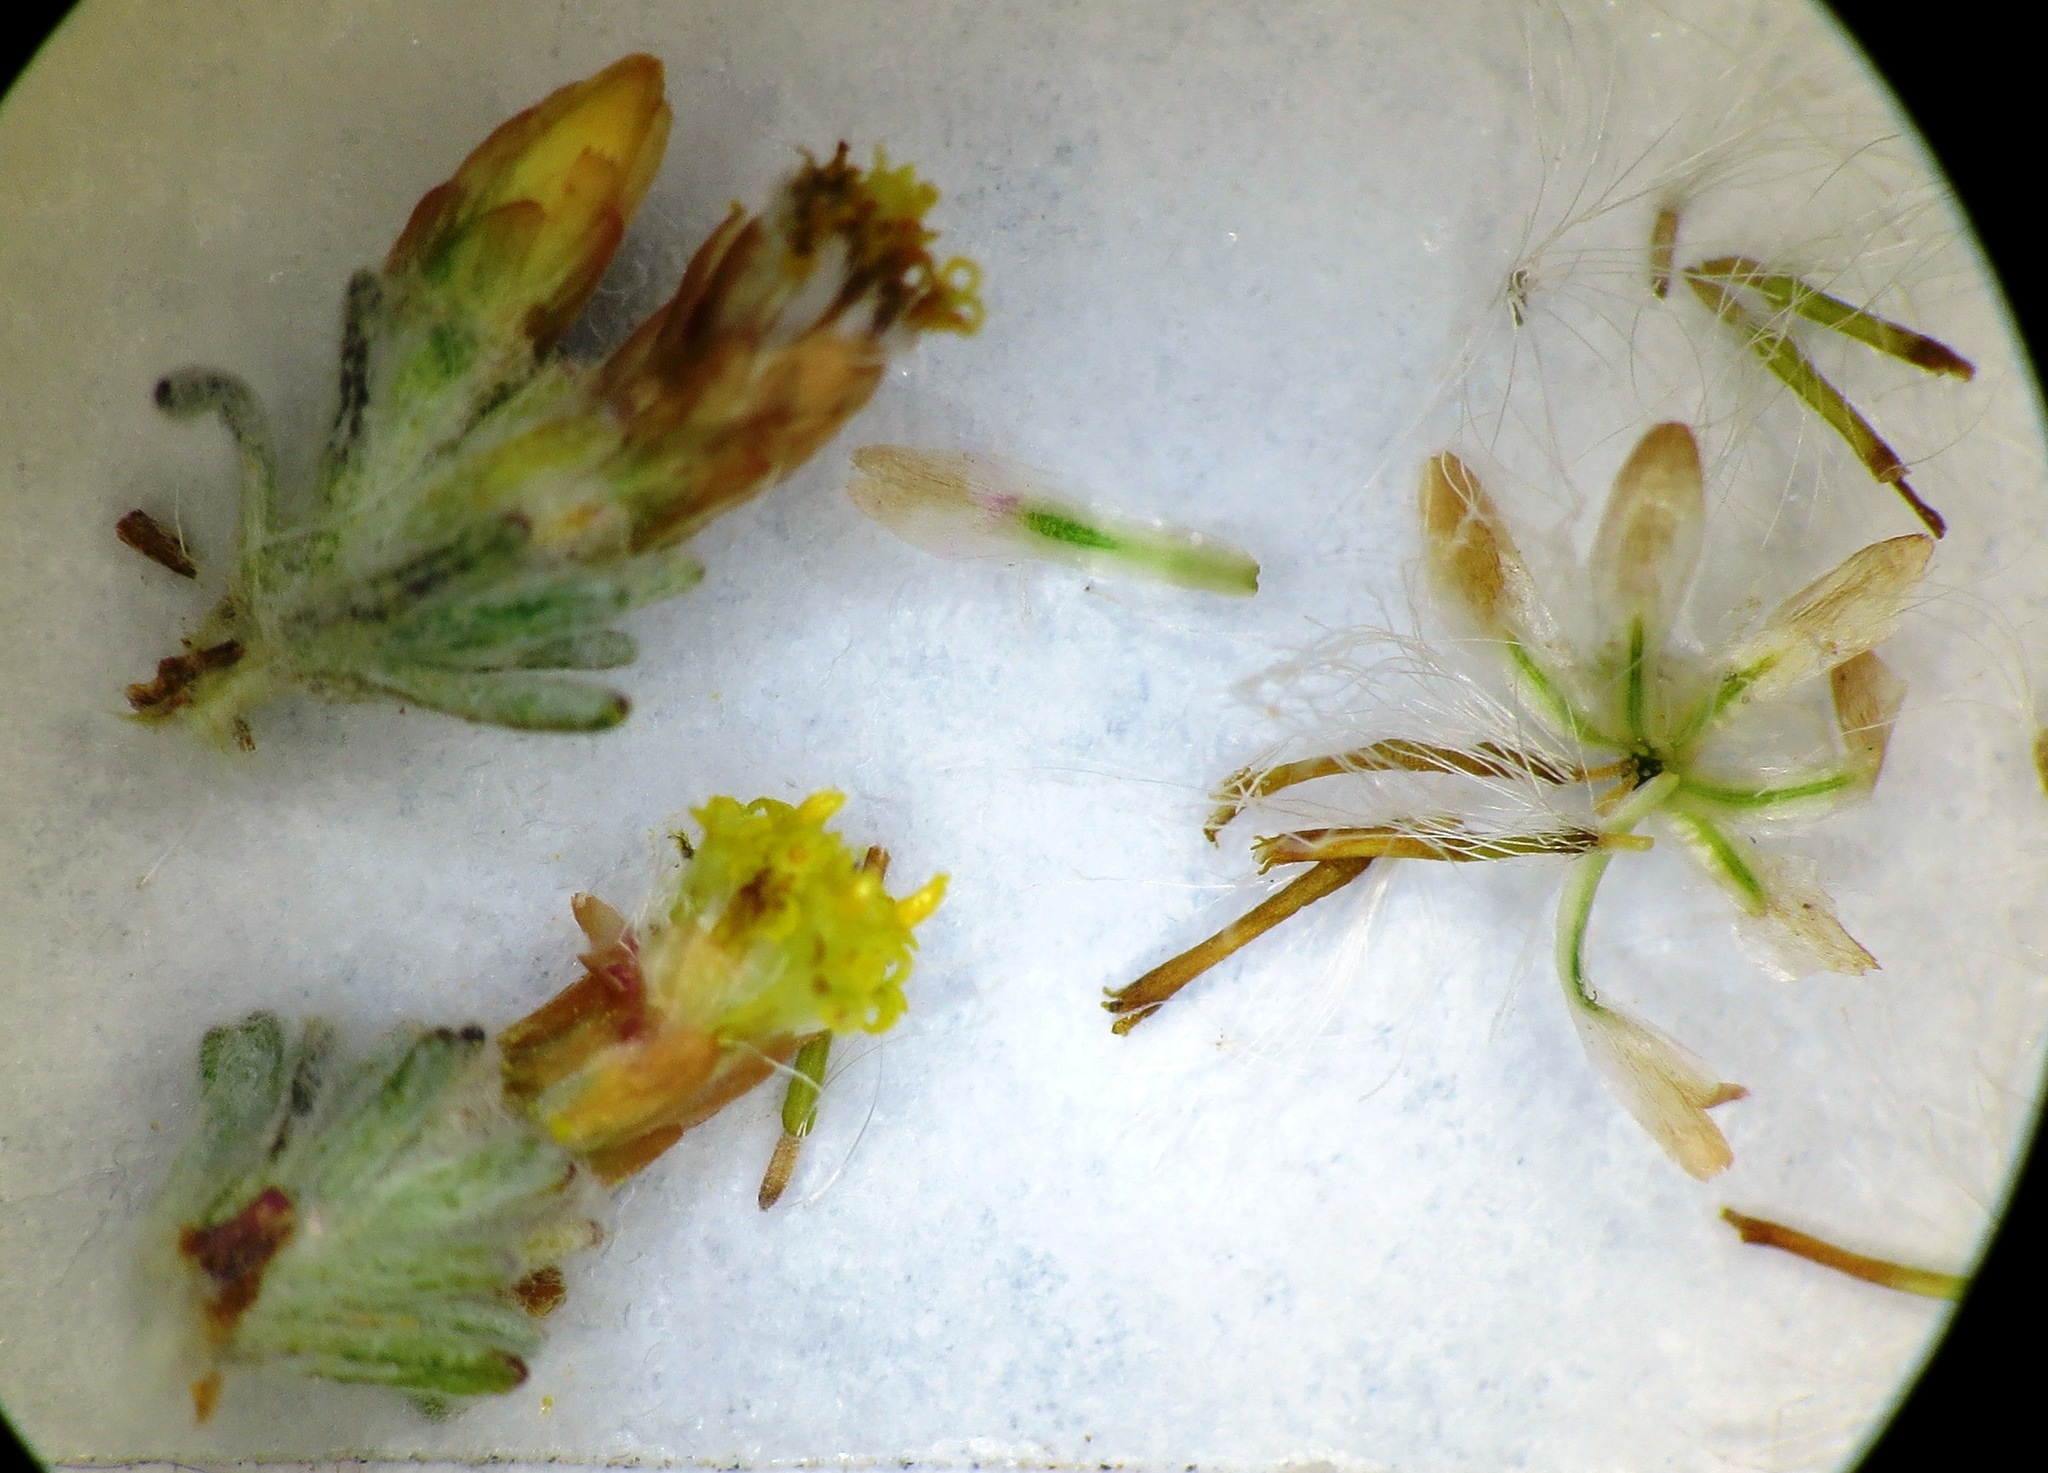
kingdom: Plantae
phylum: Tracheophyta
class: Magnoliopsida
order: Asterales
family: Asteraceae
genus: Helichrysum
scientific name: Helichrysum asperum
